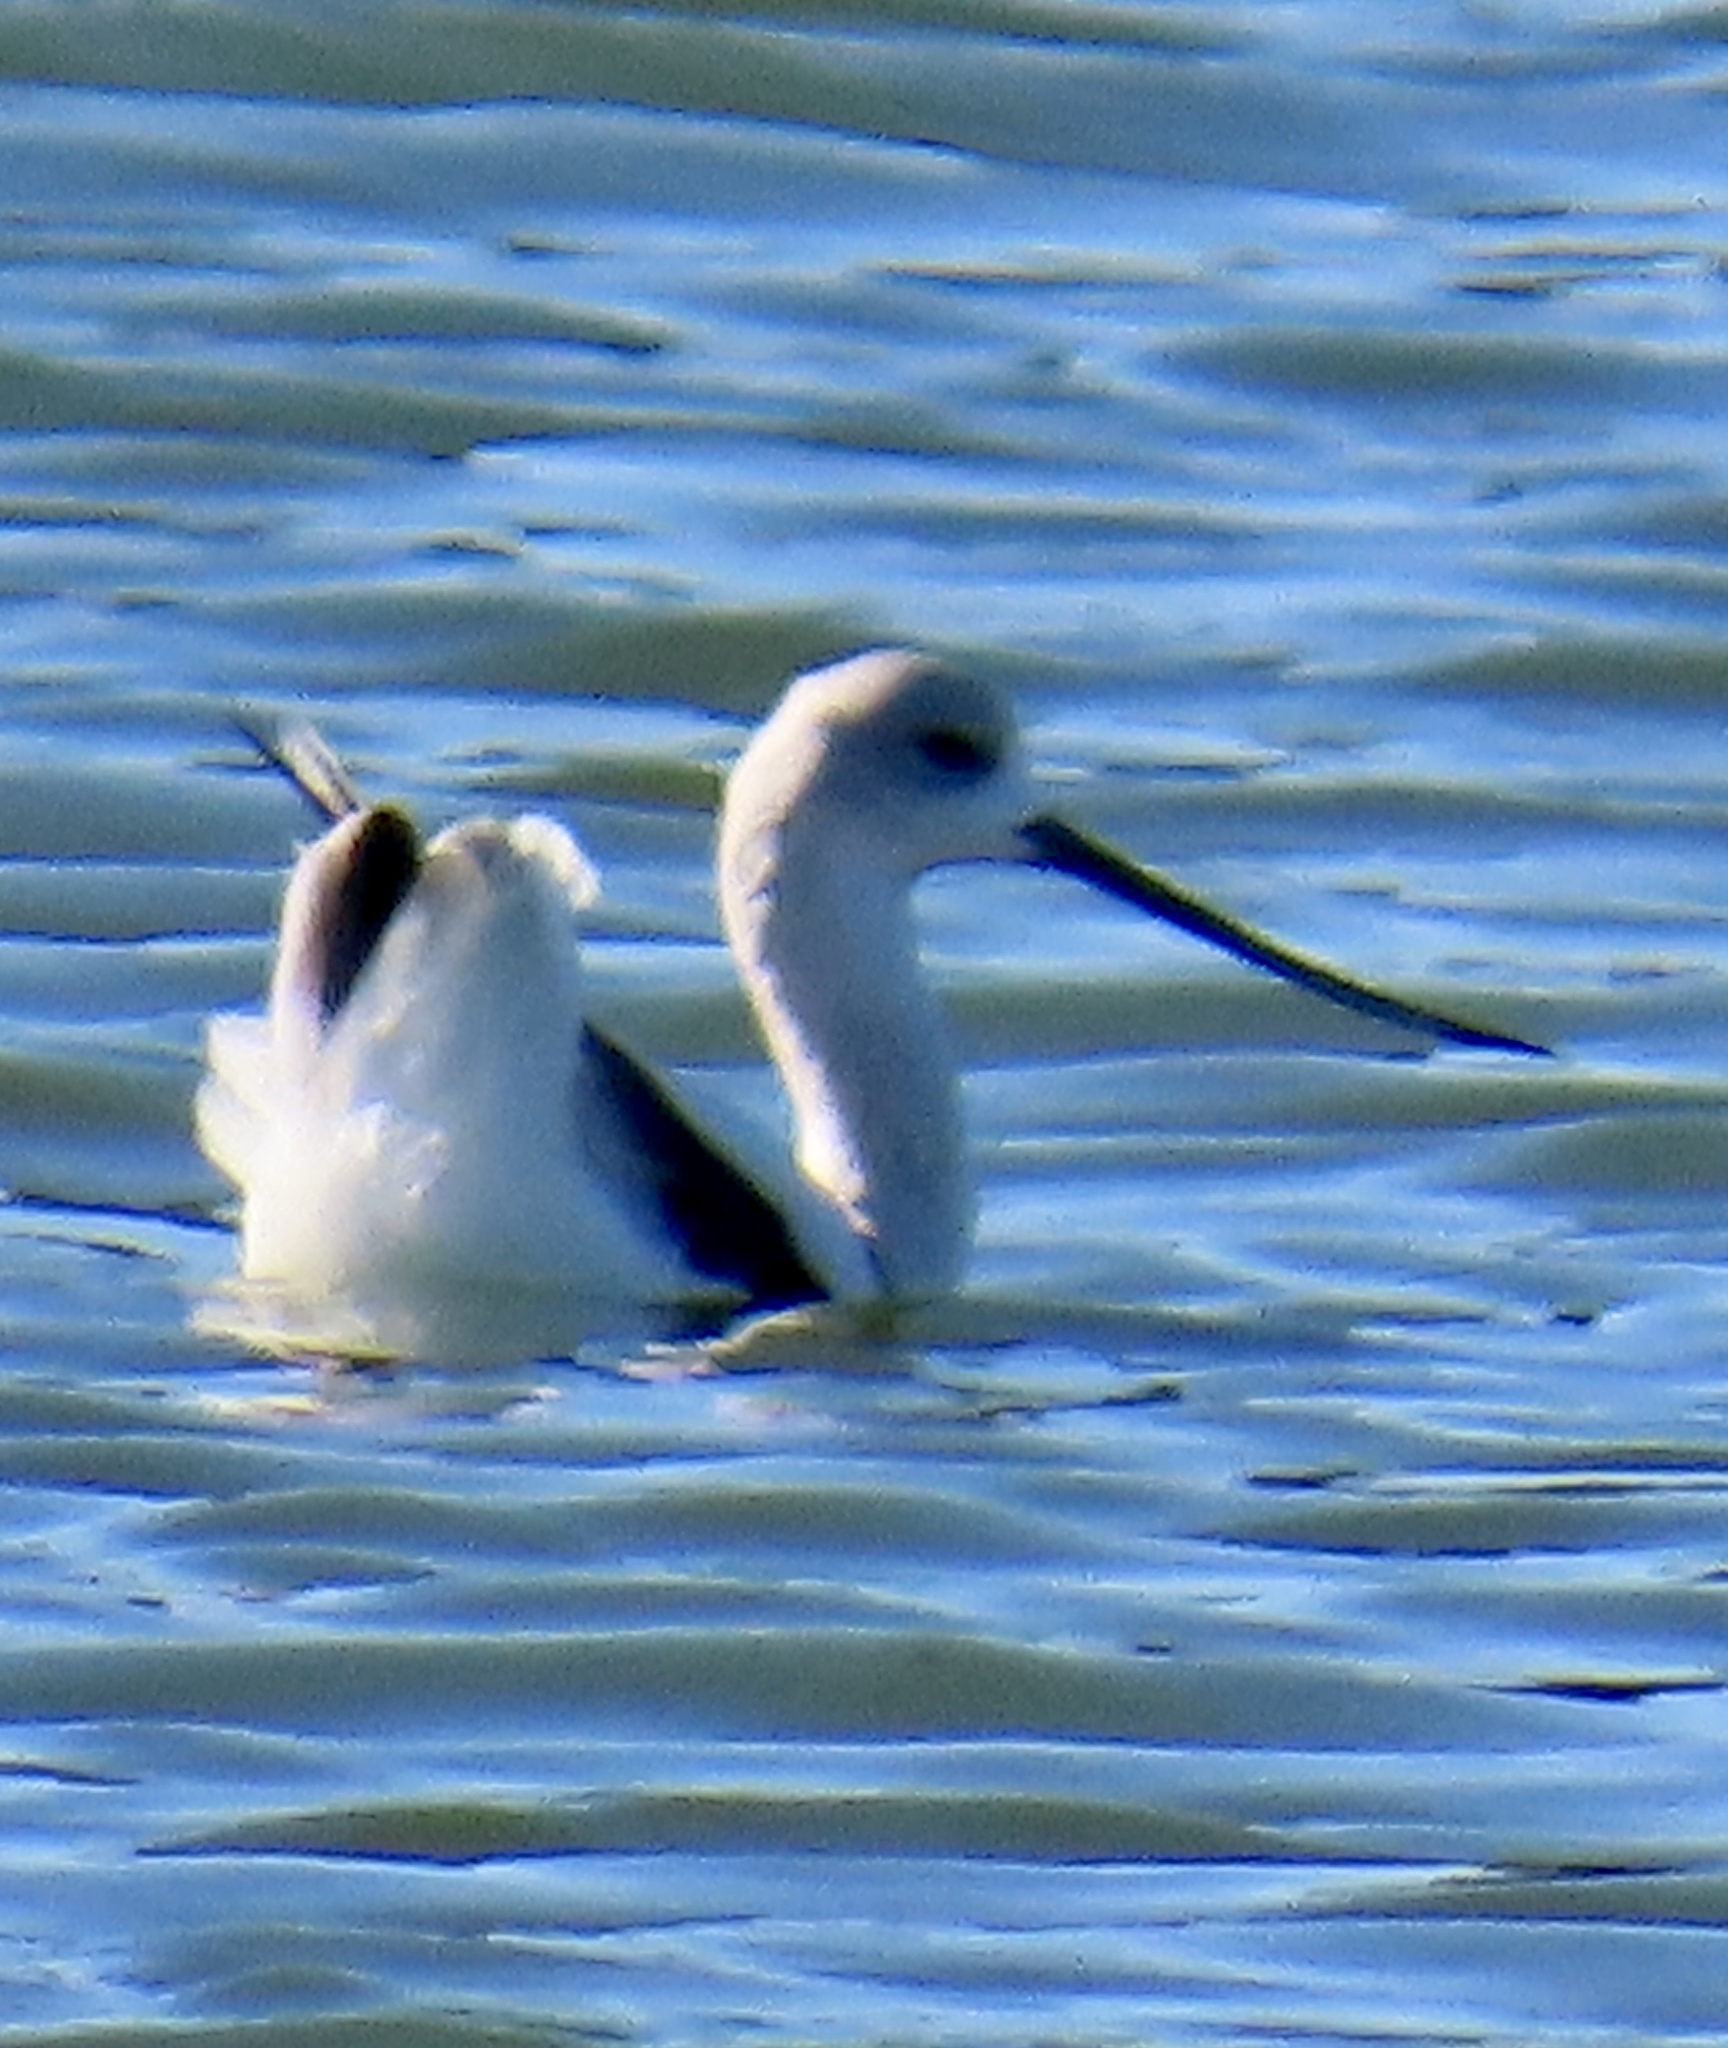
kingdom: Animalia
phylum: Chordata
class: Aves
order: Charadriiformes
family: Recurvirostridae
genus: Recurvirostra
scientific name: Recurvirostra americana
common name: American avocet
